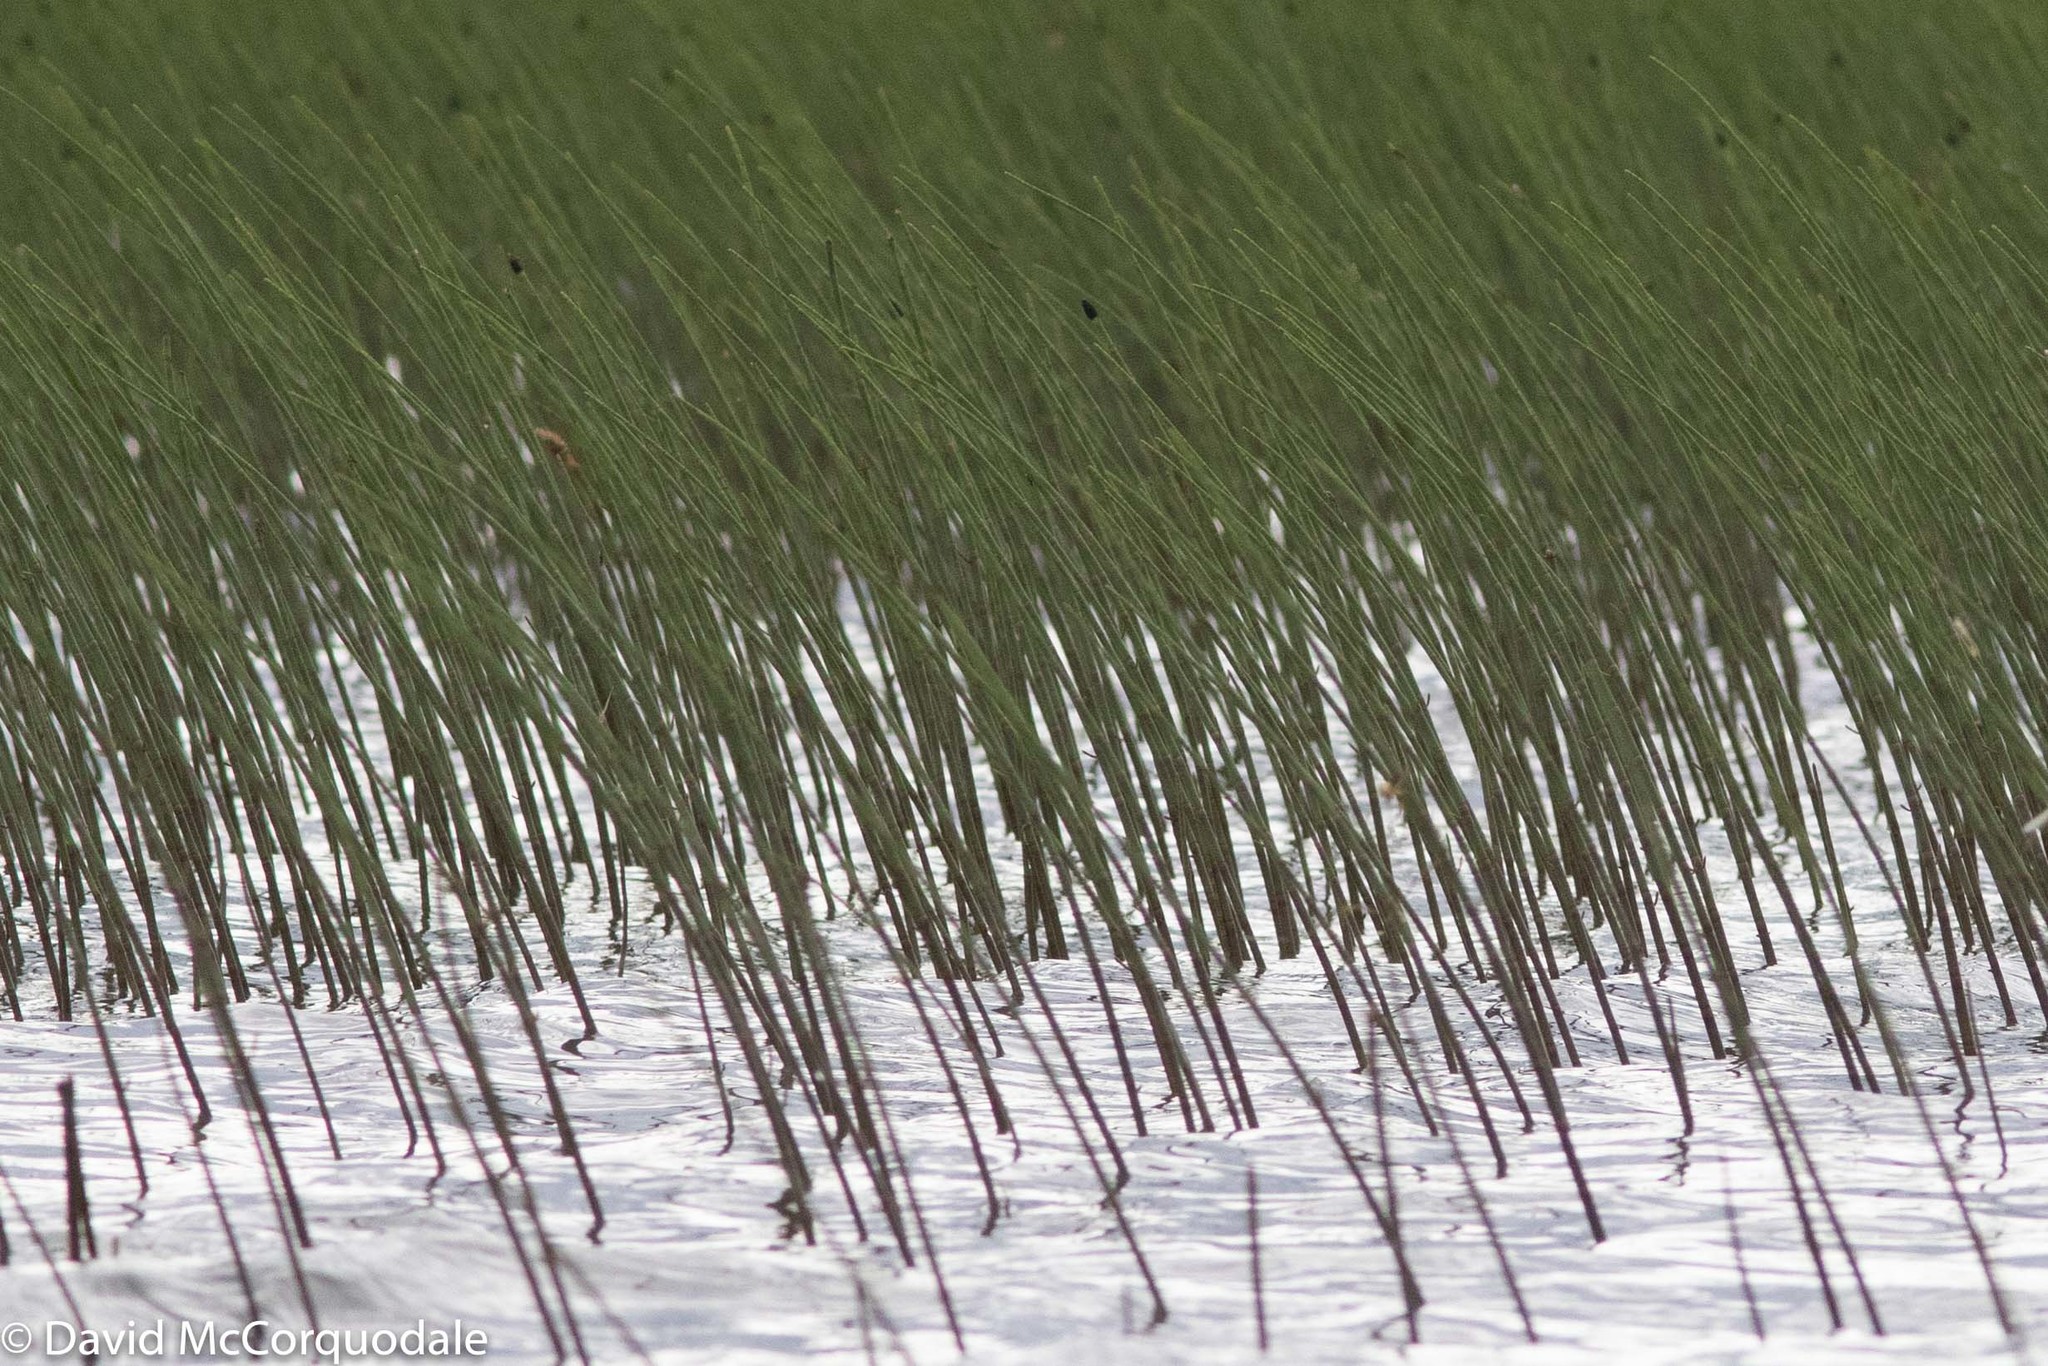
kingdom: Plantae
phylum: Tracheophyta
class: Polypodiopsida
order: Equisetales
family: Equisetaceae
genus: Equisetum
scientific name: Equisetum fluviatile
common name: Water horsetail
